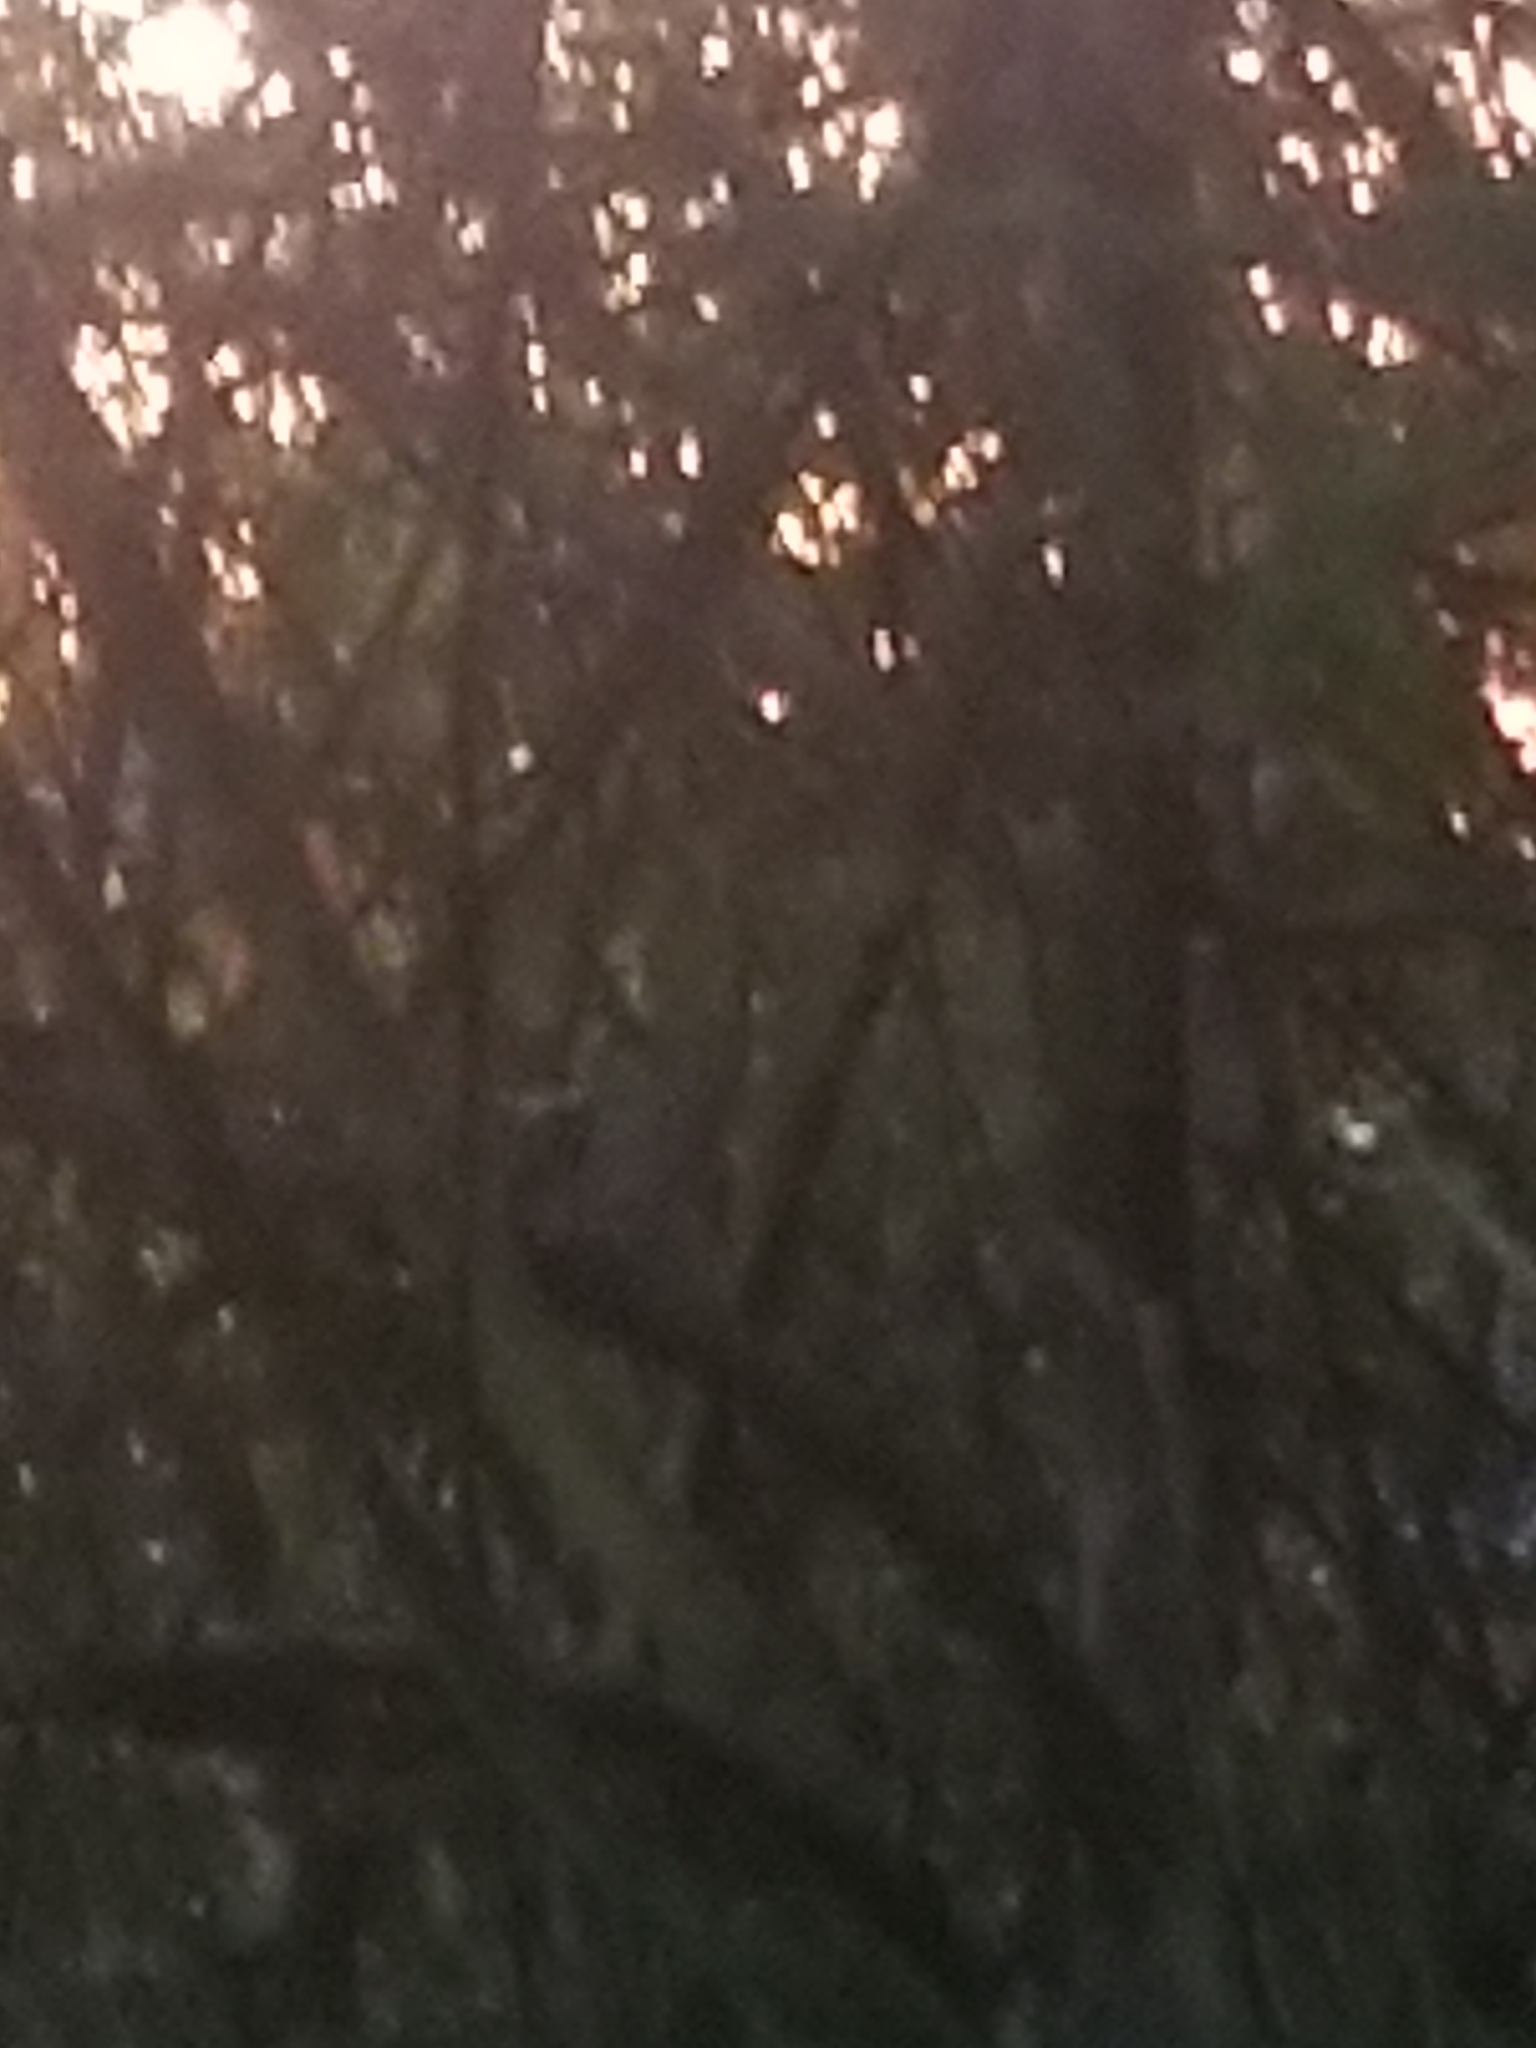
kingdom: Animalia
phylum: Chordata
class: Aves
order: Passeriformes
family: Mimidae
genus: Mimus
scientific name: Mimus polyglottos
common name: Northern mockingbird
